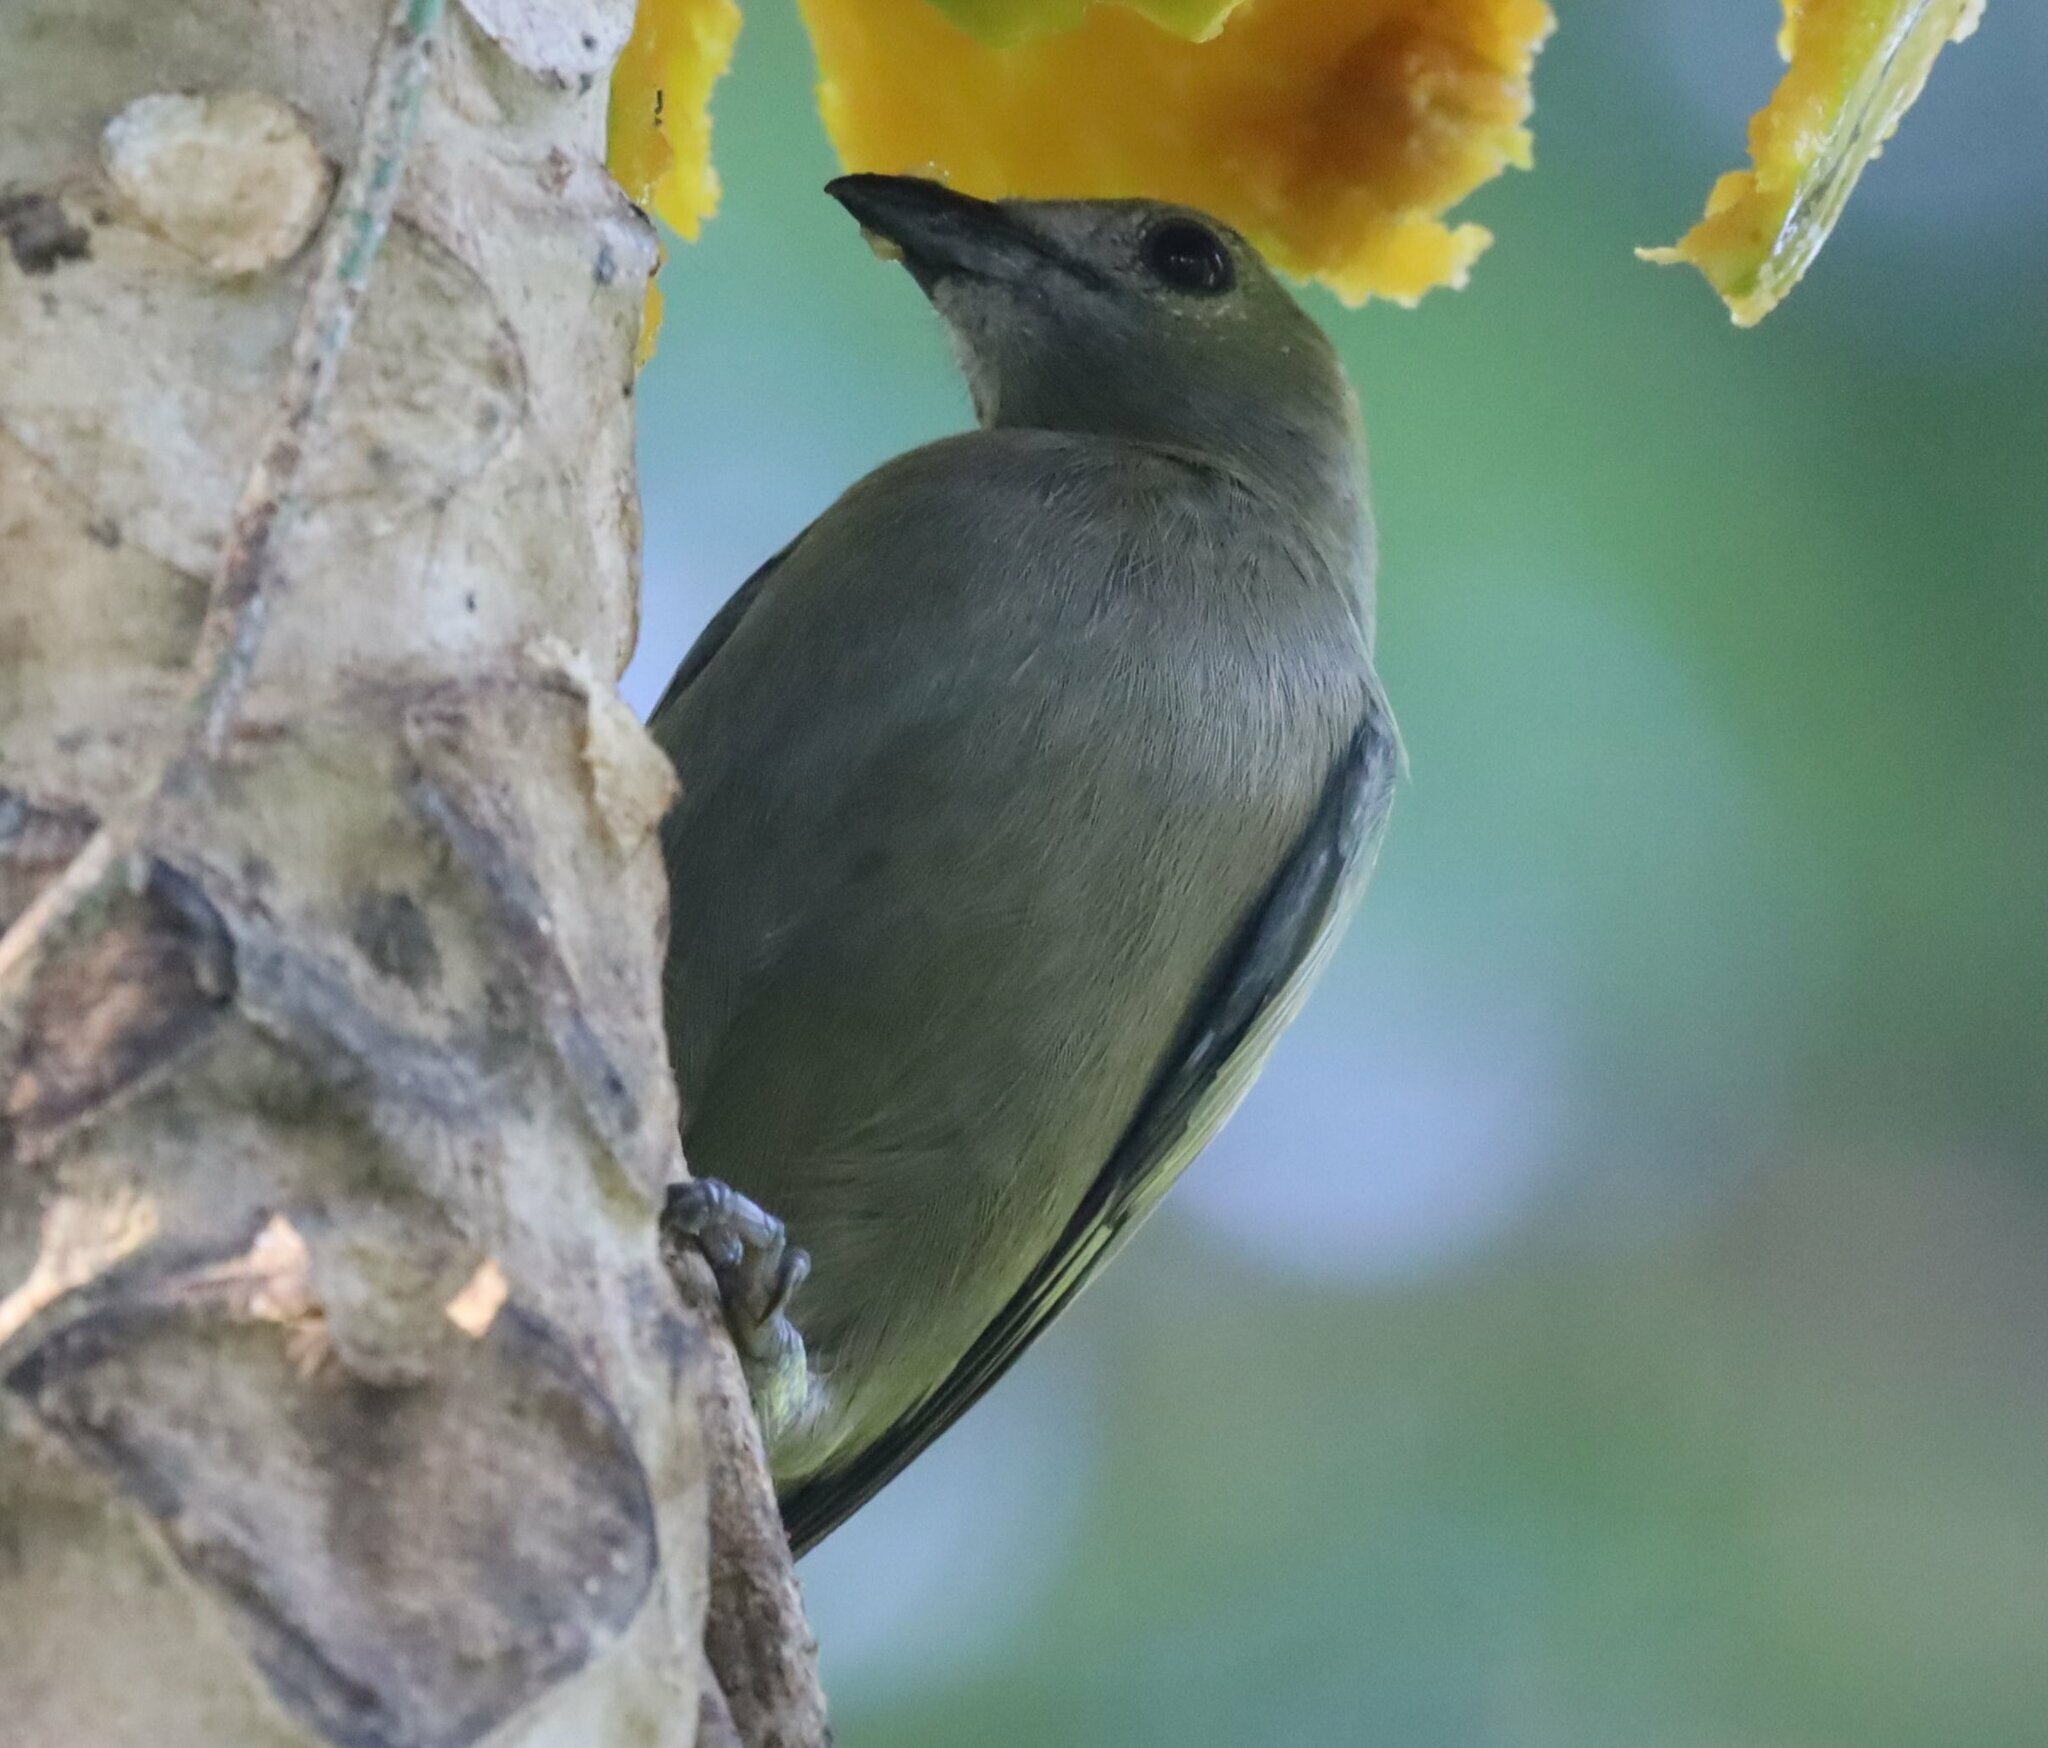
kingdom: Animalia
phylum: Chordata
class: Aves
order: Passeriformes
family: Thraupidae
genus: Thraupis
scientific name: Thraupis palmarum
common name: Palm tanager
